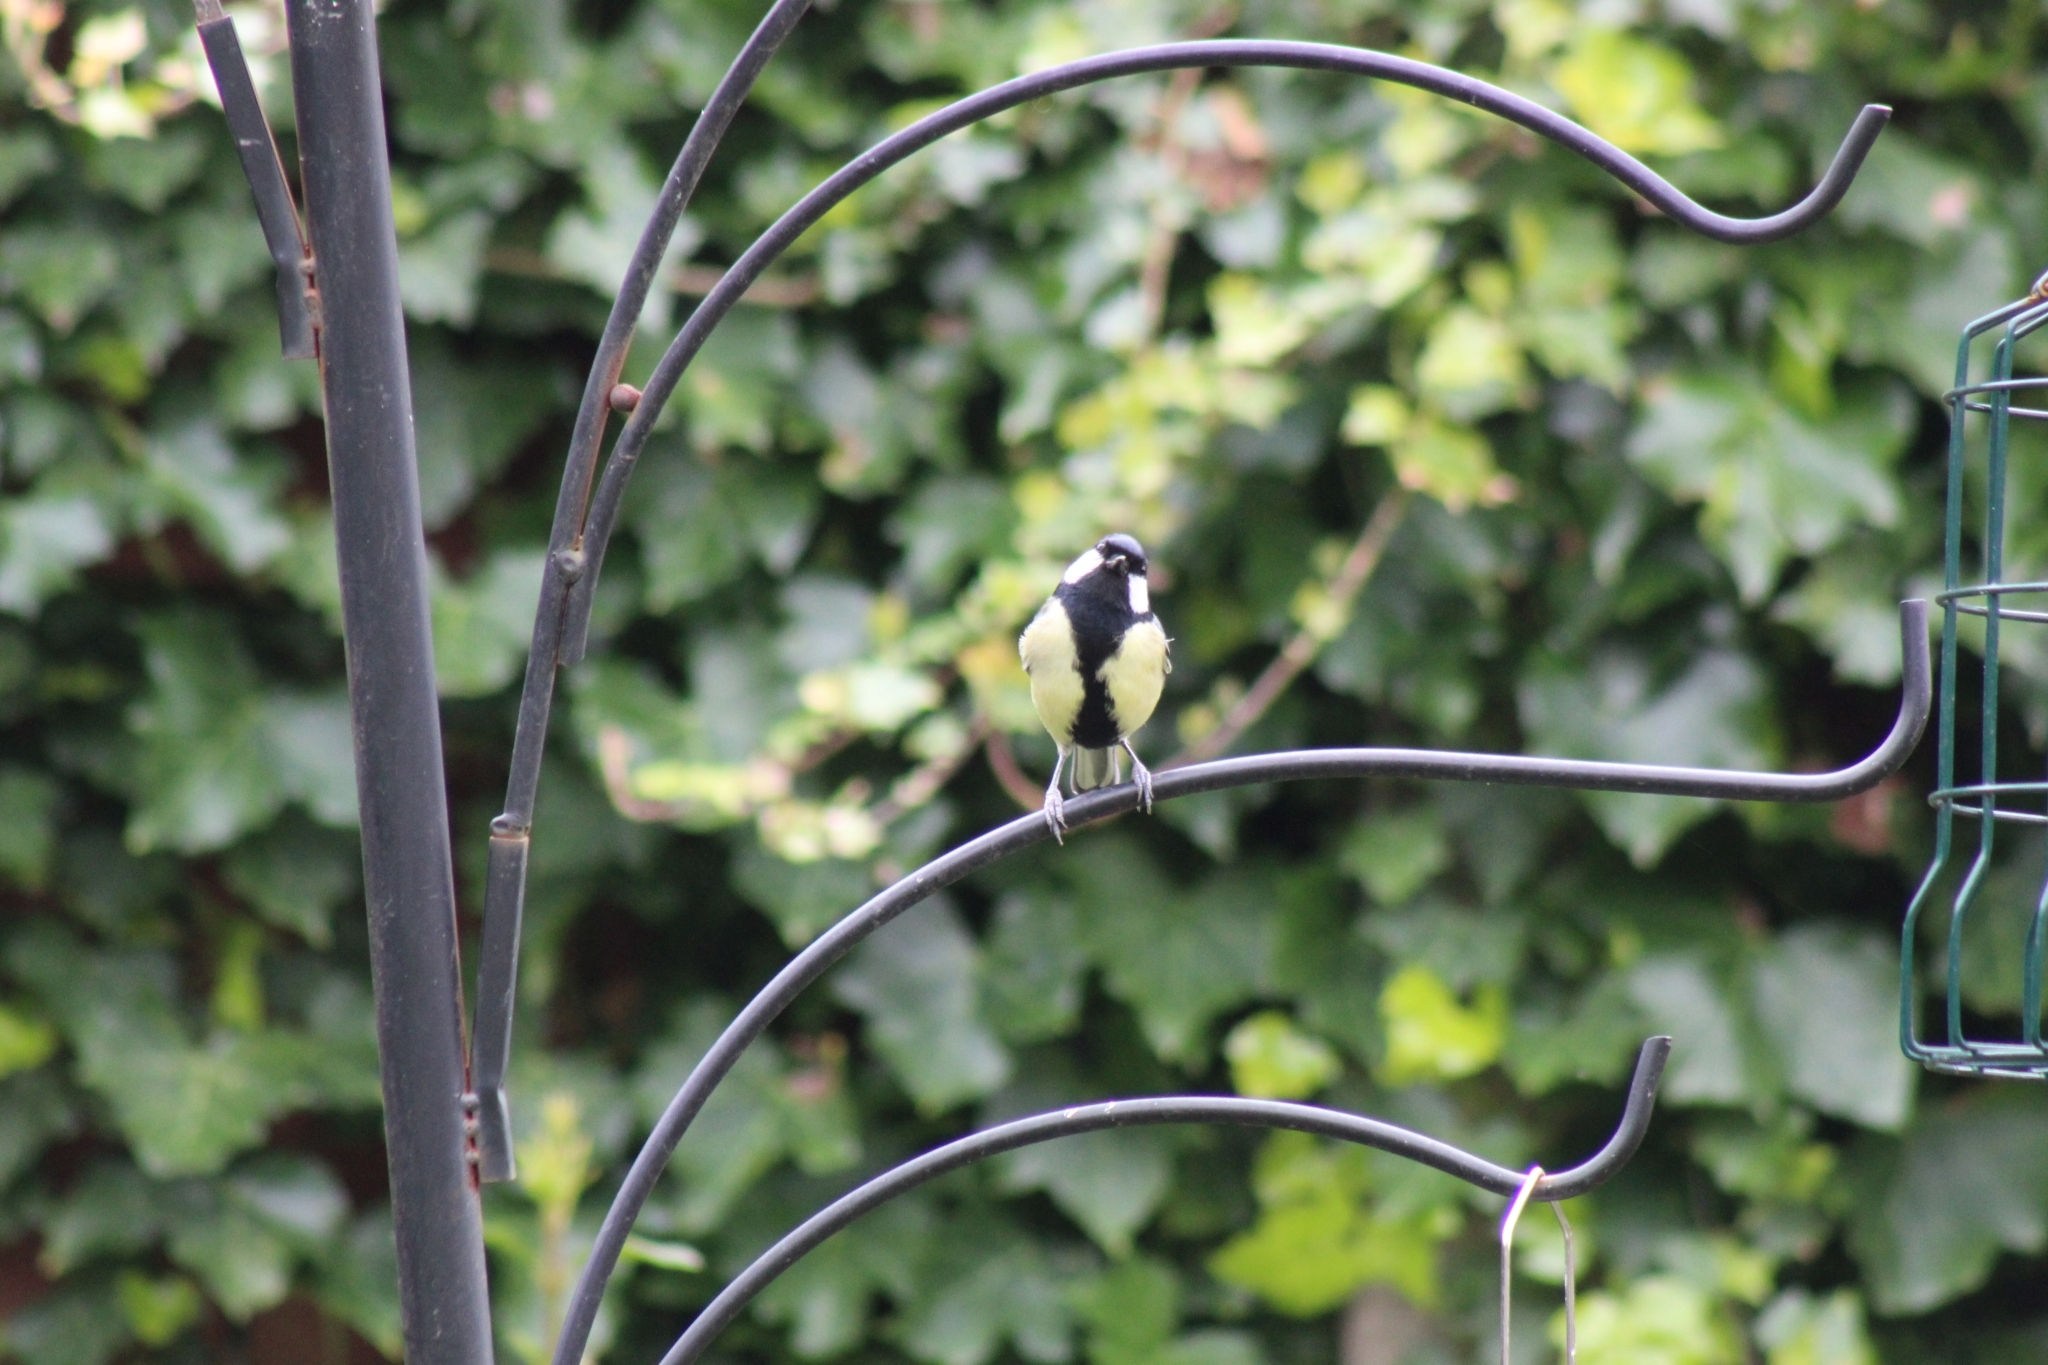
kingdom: Animalia
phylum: Chordata
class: Aves
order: Passeriformes
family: Paridae
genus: Parus
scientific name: Parus major
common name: Great tit
